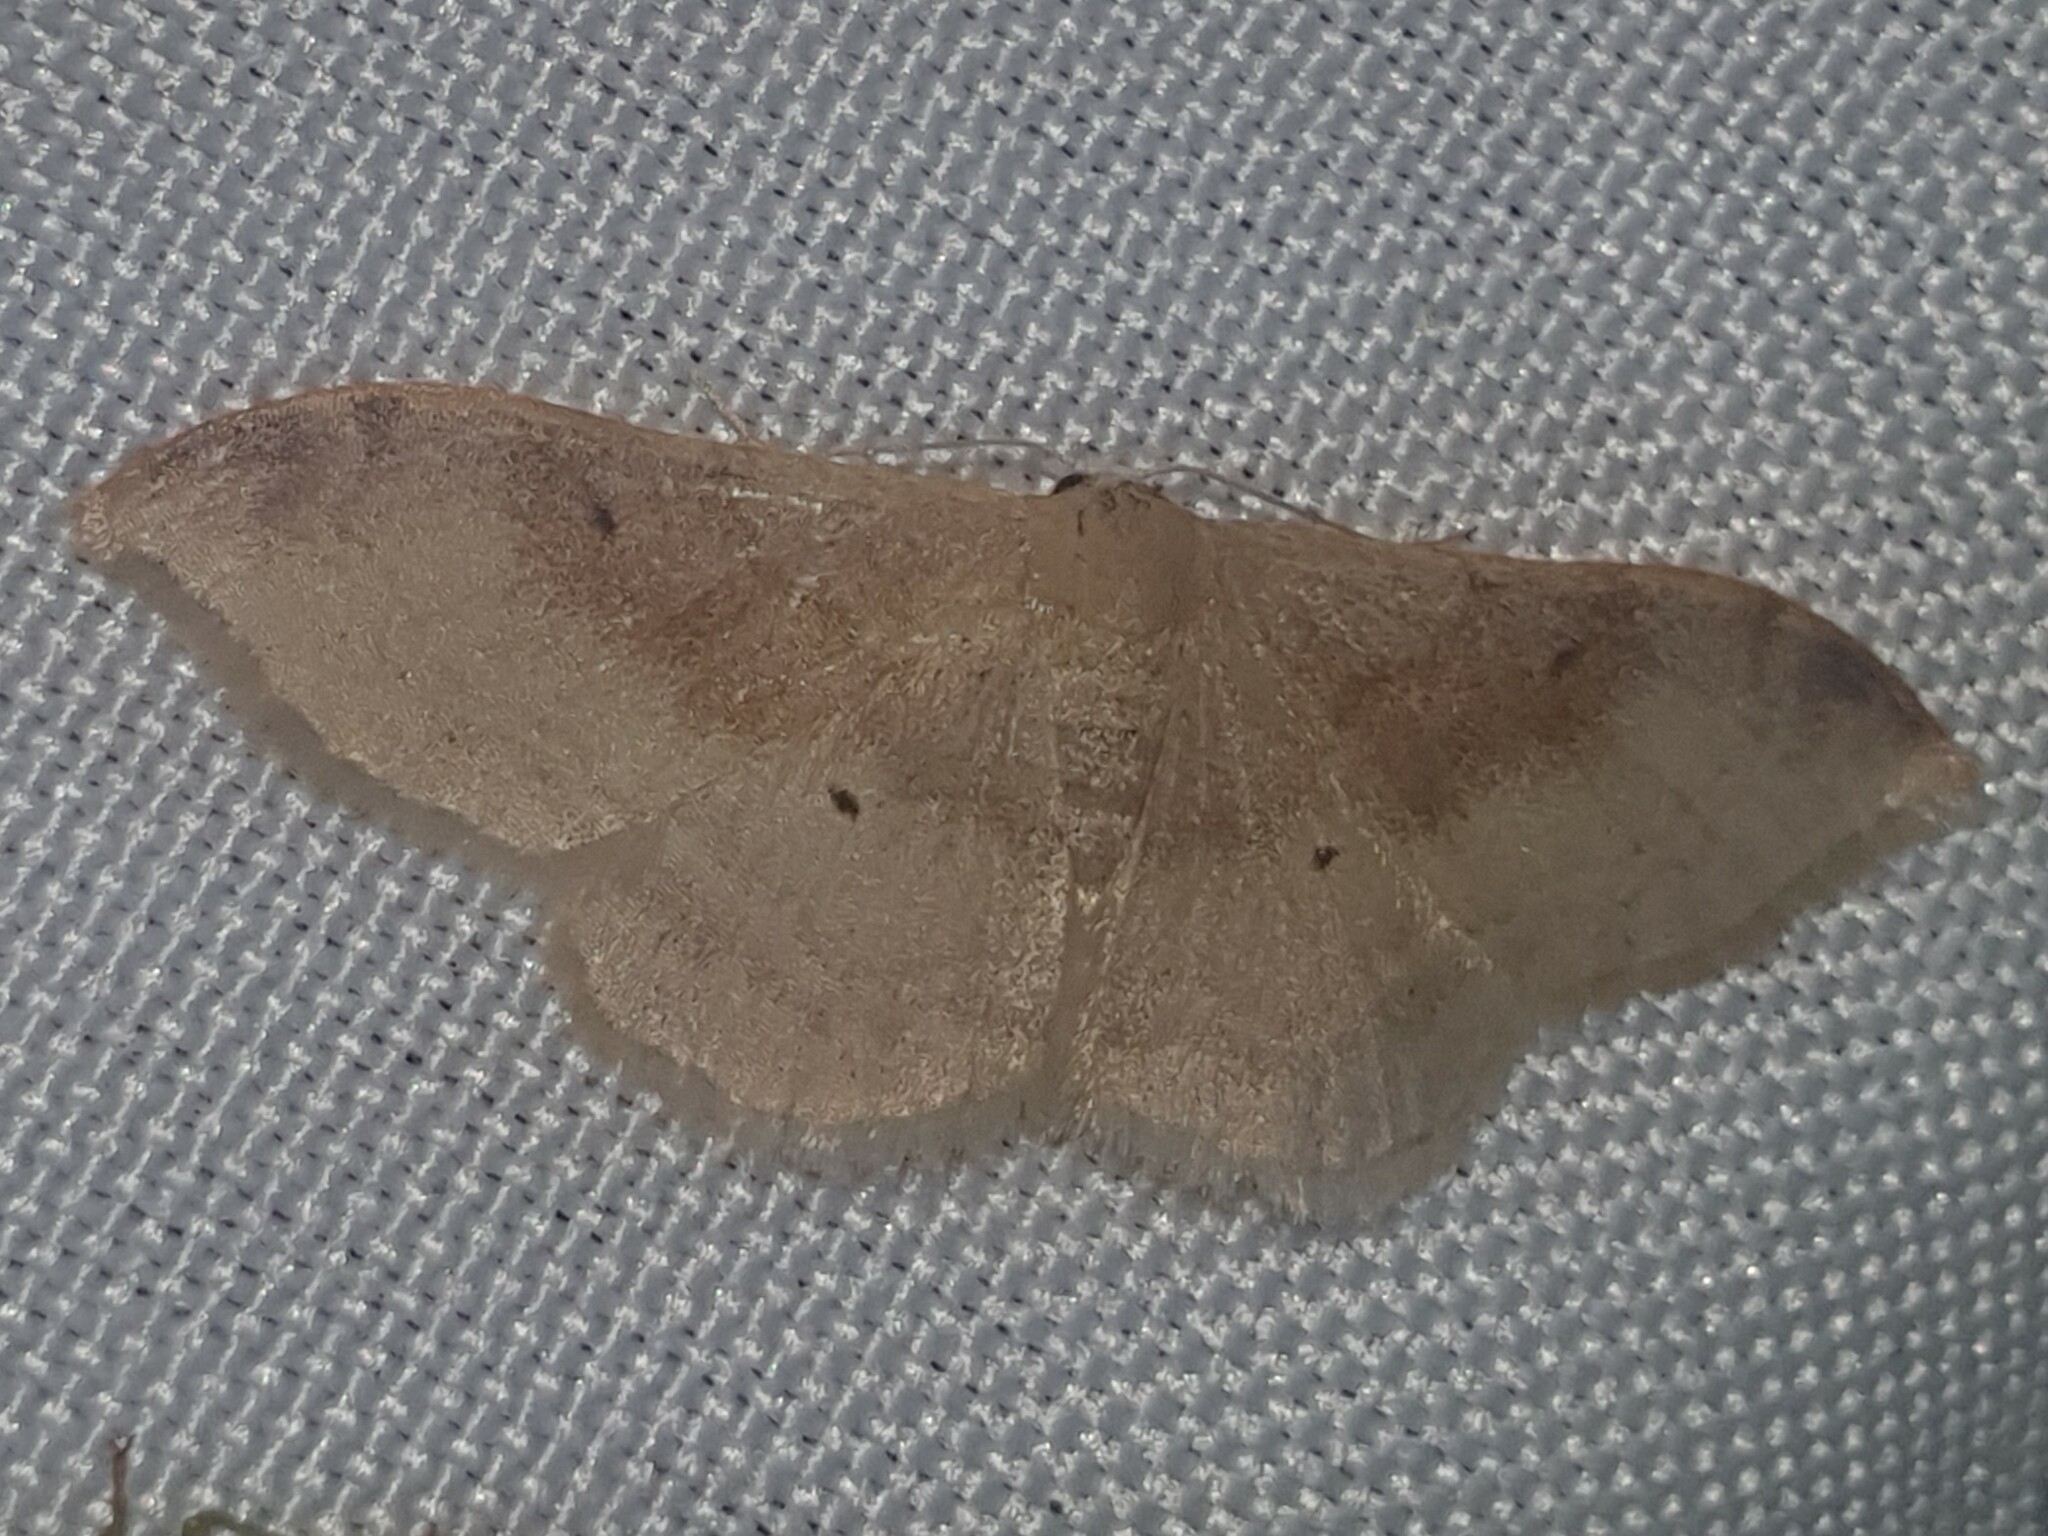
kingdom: Animalia
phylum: Arthropoda
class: Insecta
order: Lepidoptera
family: Geometridae
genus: Idaea
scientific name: Idaea degeneraria
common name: Portland ribbon wave
